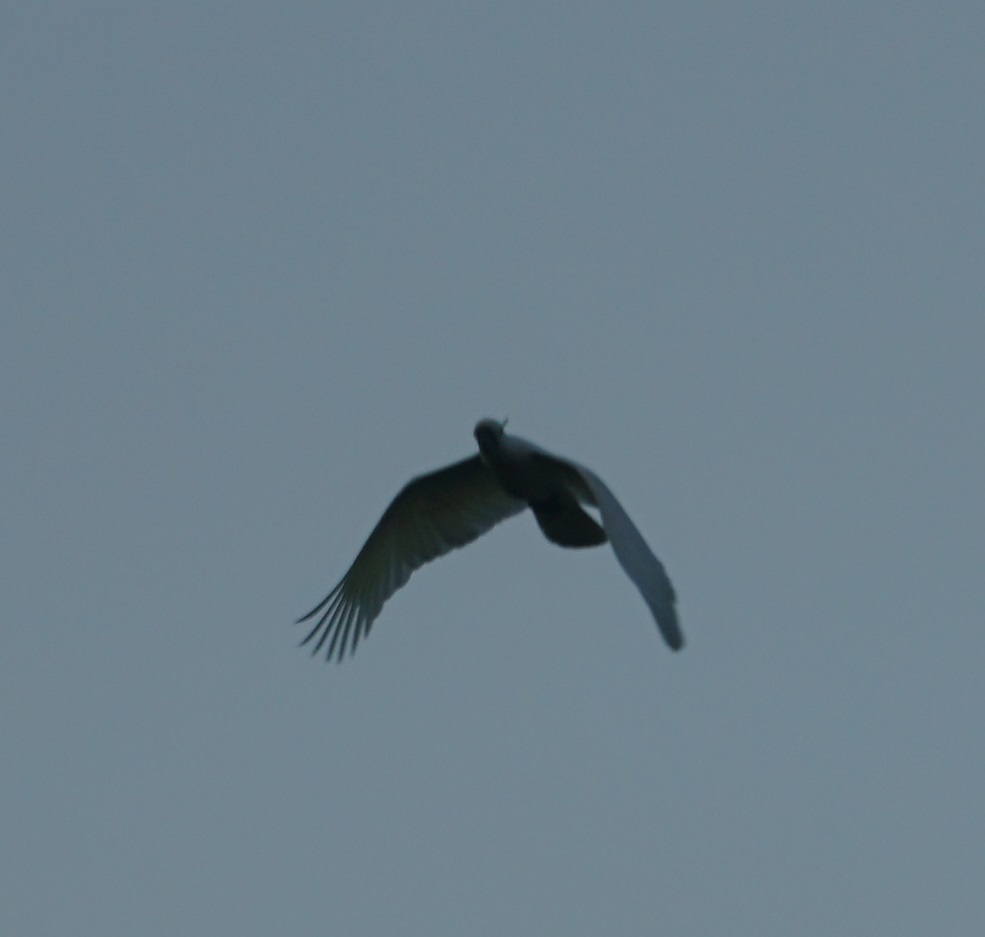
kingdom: Animalia
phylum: Chordata
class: Aves
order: Psittaciformes
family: Psittacidae
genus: Cacatua
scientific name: Cacatua galerita
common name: Sulphur-crested cockatoo
